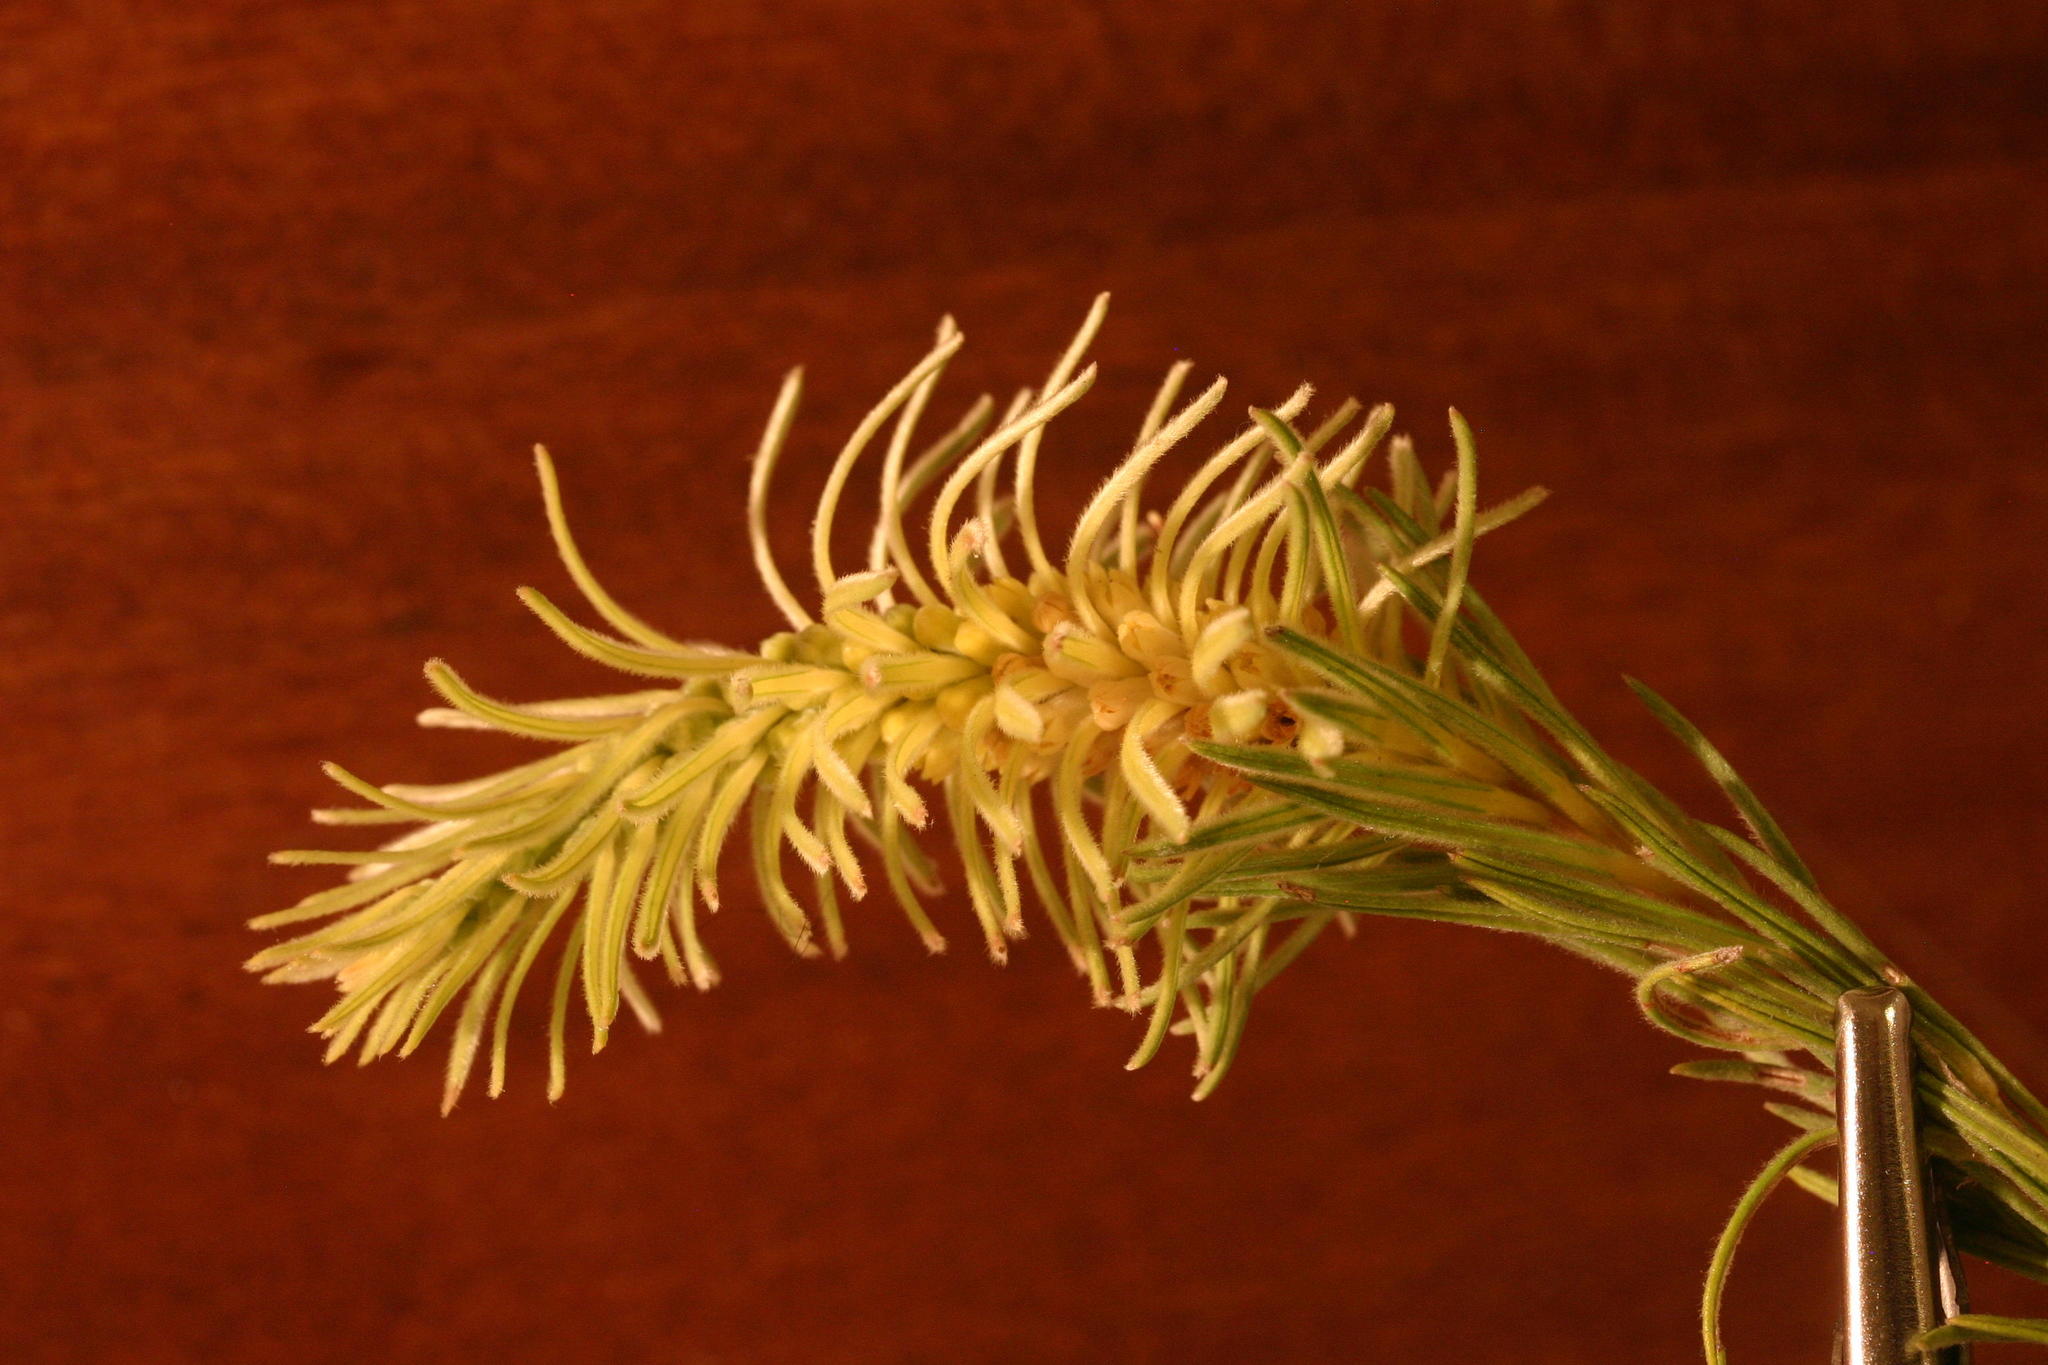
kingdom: Plantae
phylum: Tracheophyta
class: Magnoliopsida
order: Rosales
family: Rhamnaceae
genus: Phylica
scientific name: Phylica velutina
